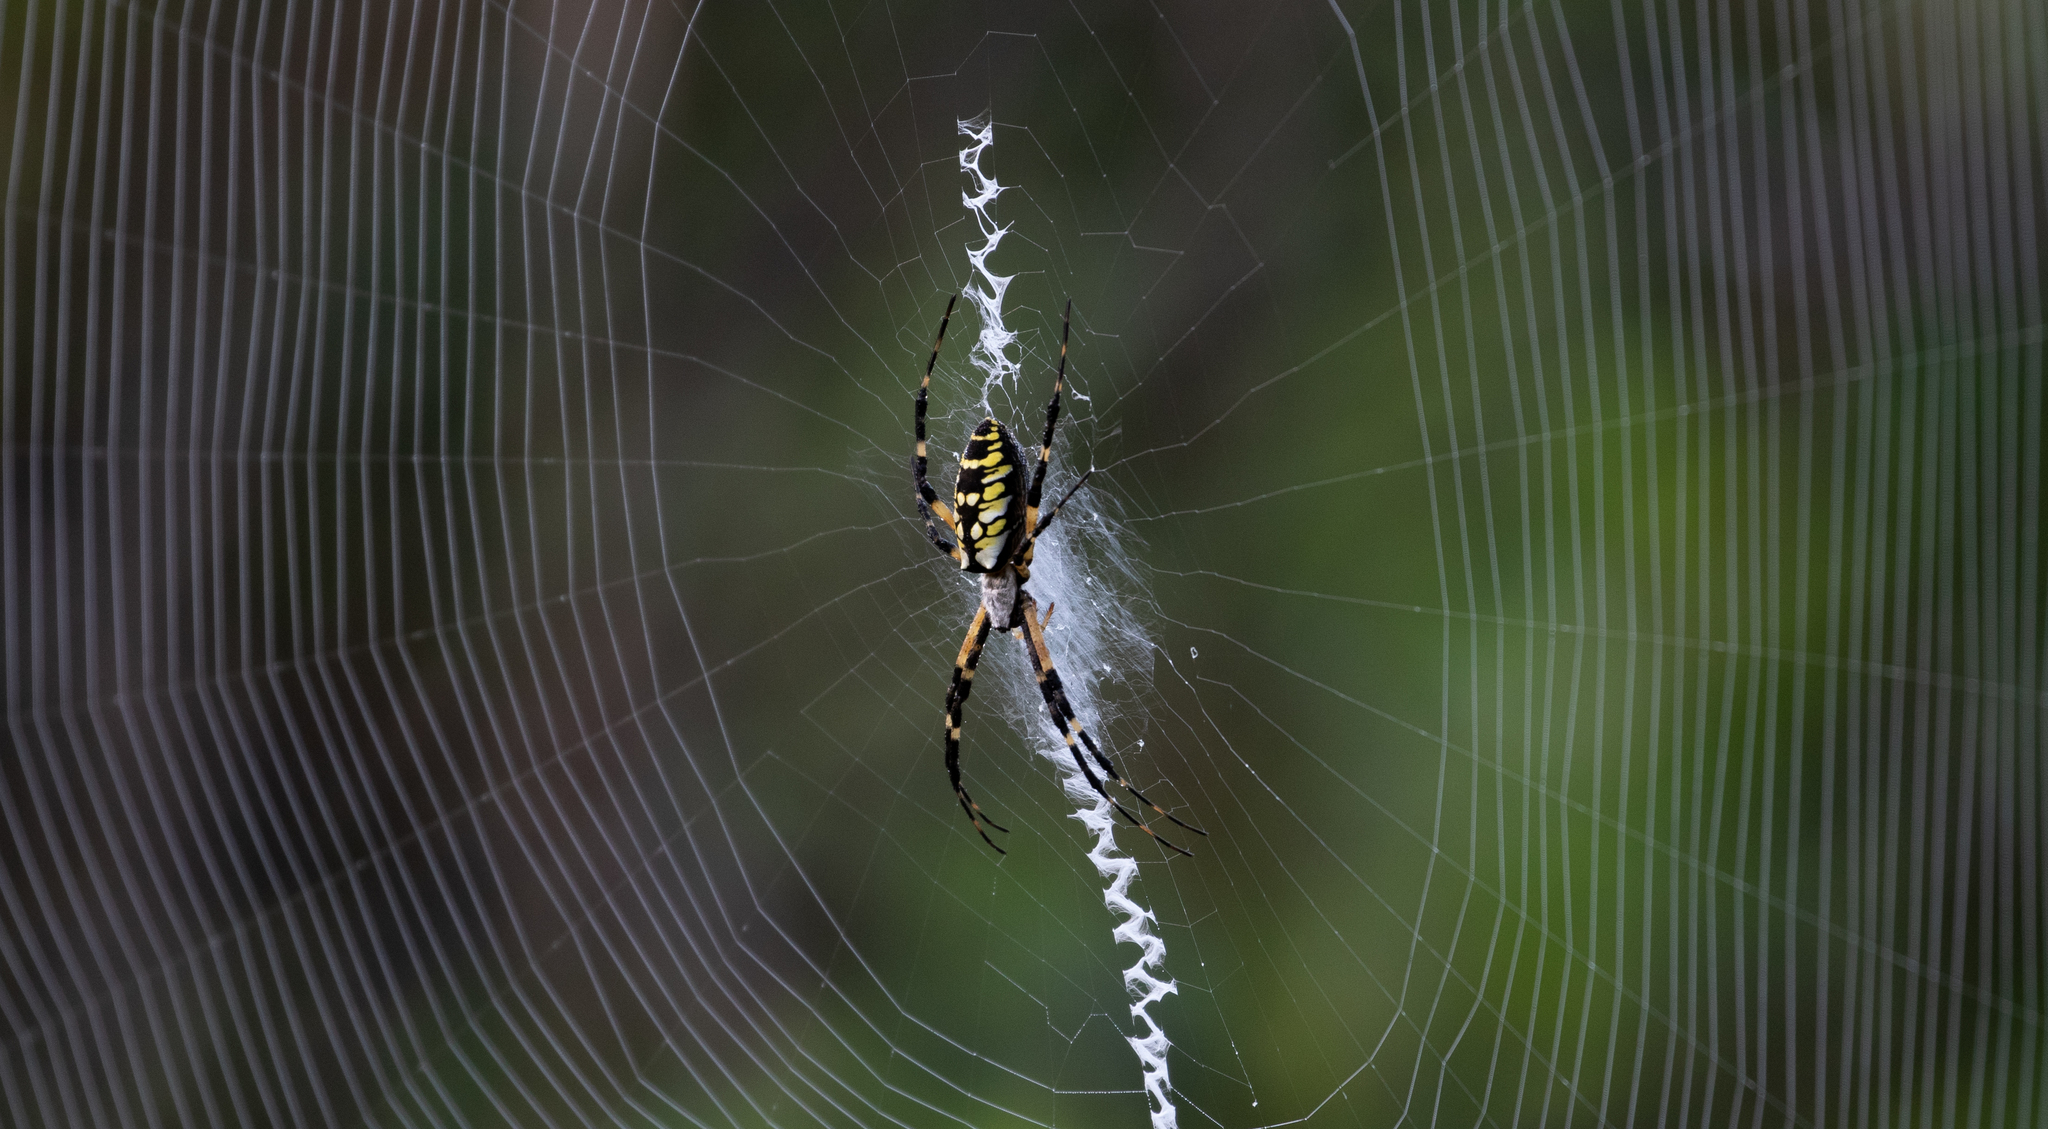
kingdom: Animalia
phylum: Arthropoda
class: Arachnida
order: Araneae
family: Araneidae
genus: Argiope
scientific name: Argiope aurantia
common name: Orb weavers
